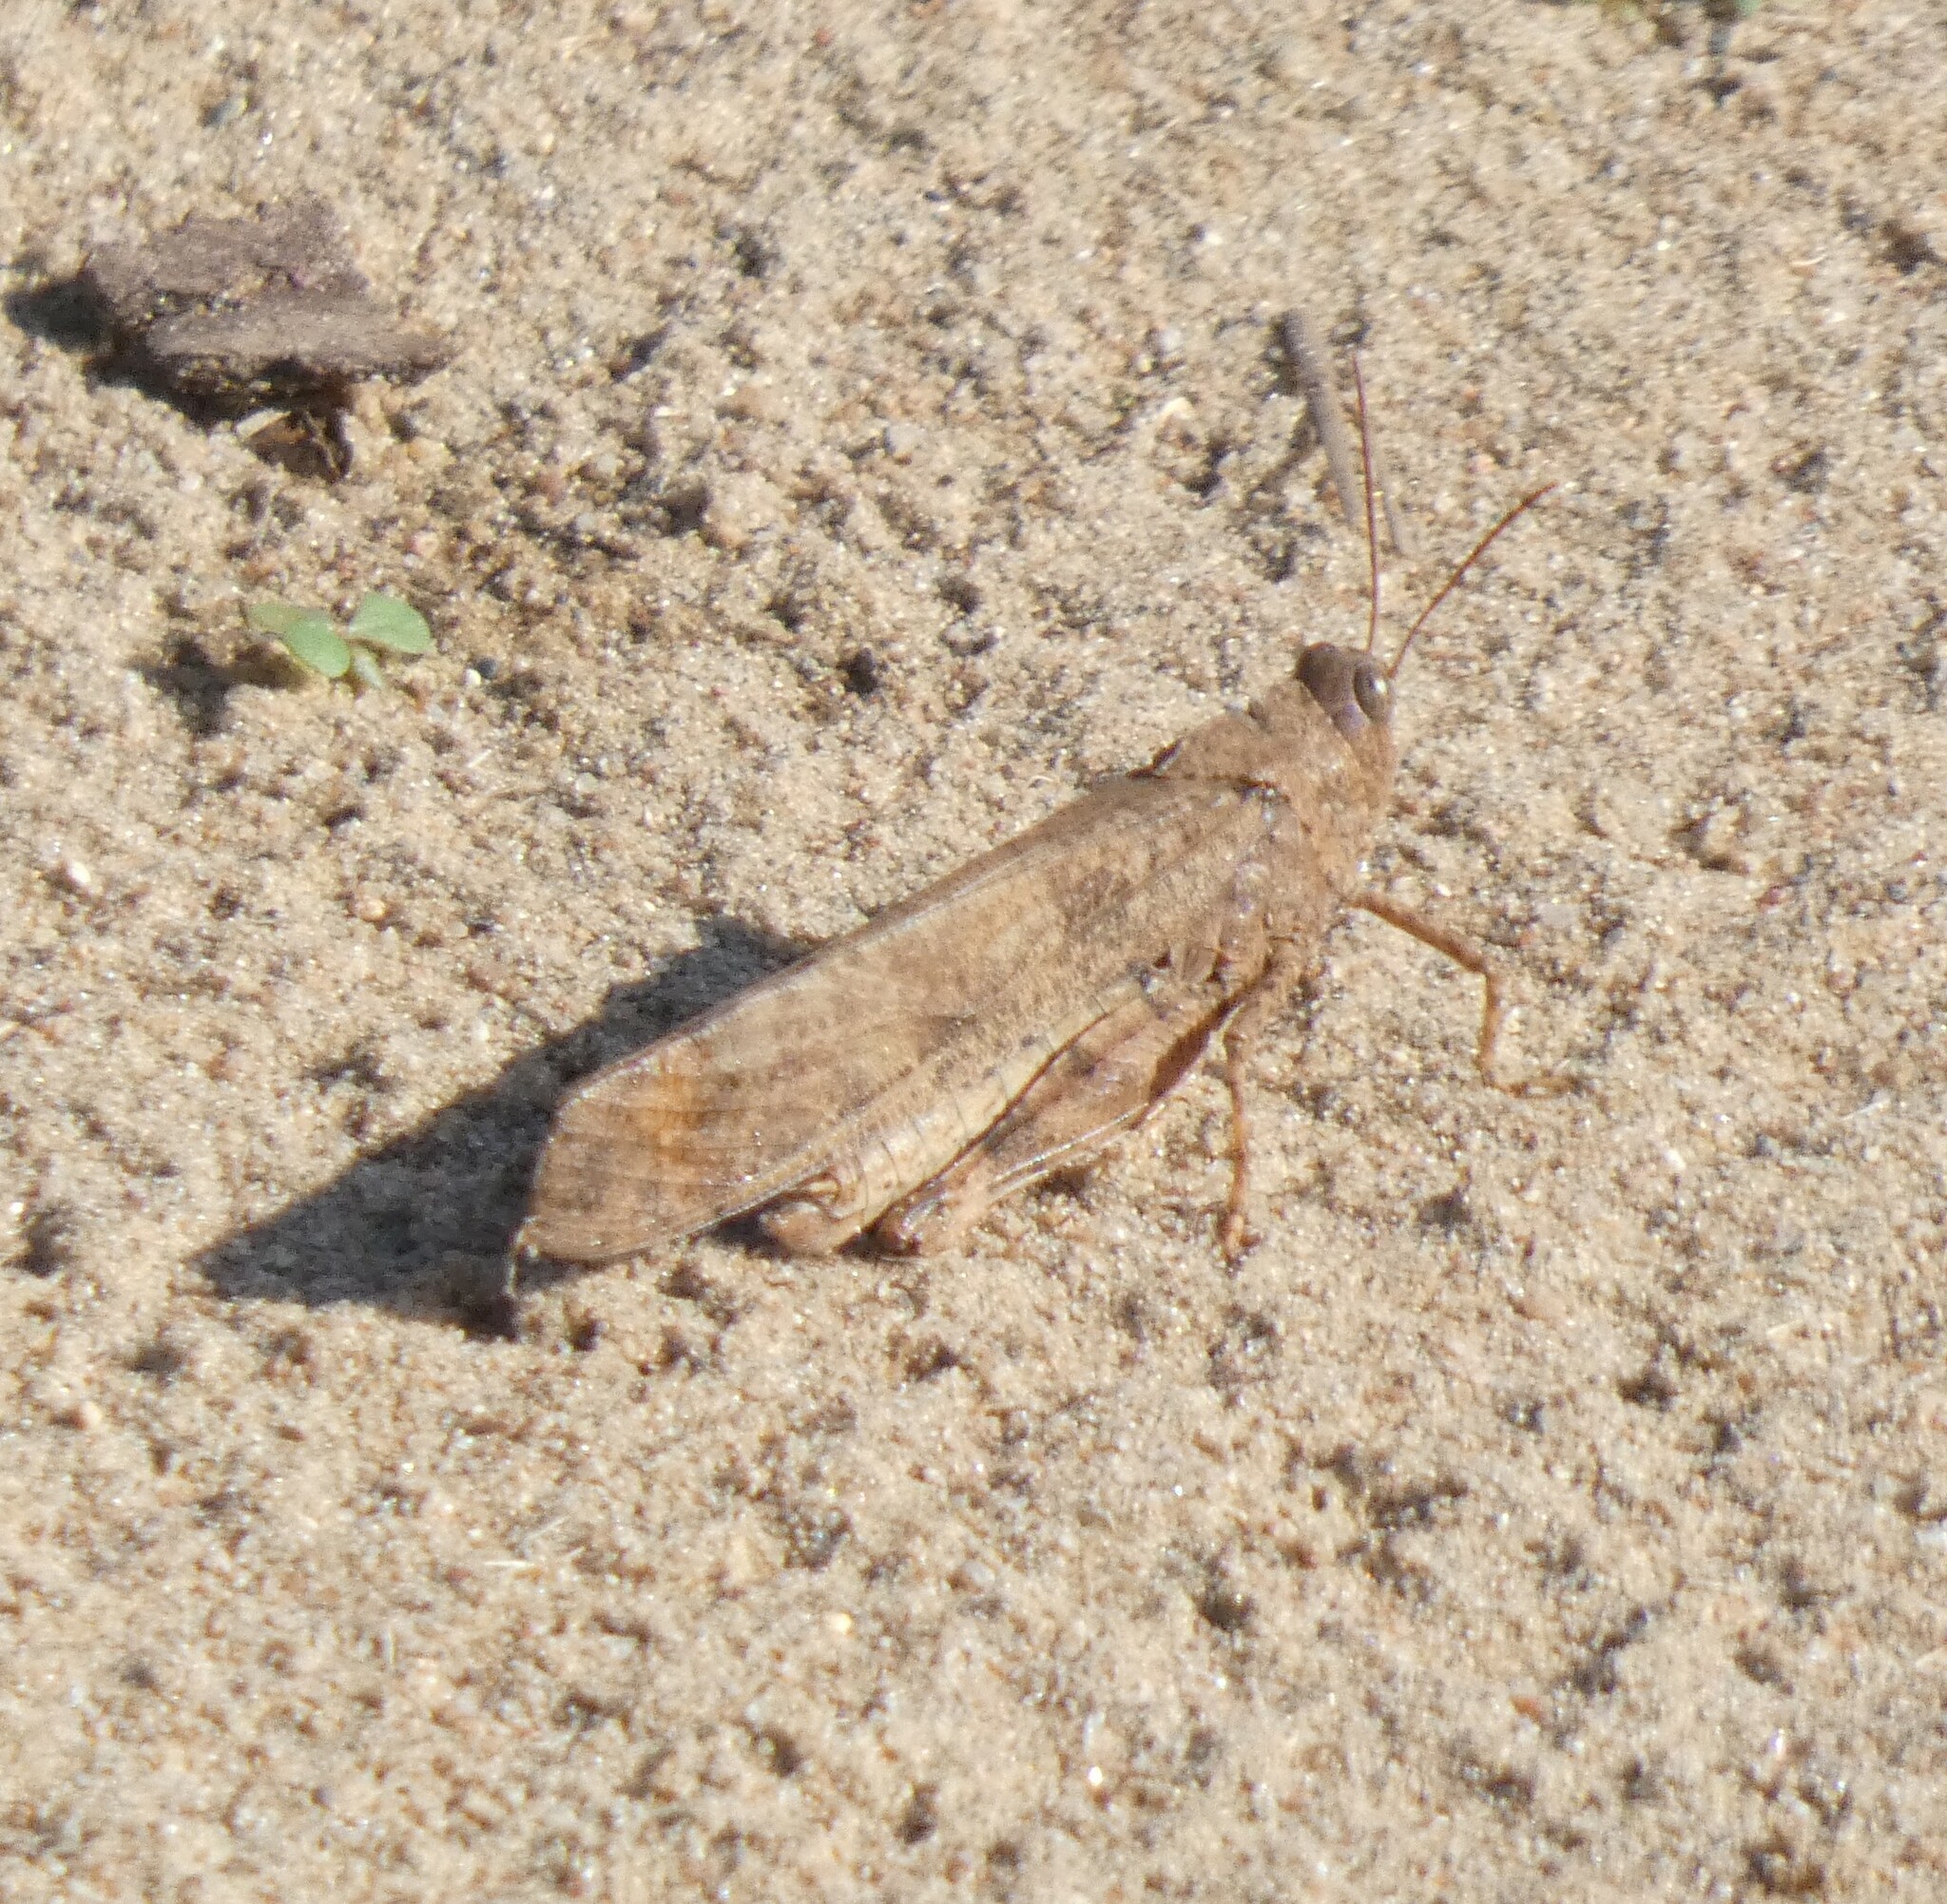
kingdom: Animalia
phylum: Arthropoda
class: Insecta
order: Orthoptera
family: Acrididae
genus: Dissosteira
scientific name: Dissosteira carolina
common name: Carolina grasshopper
